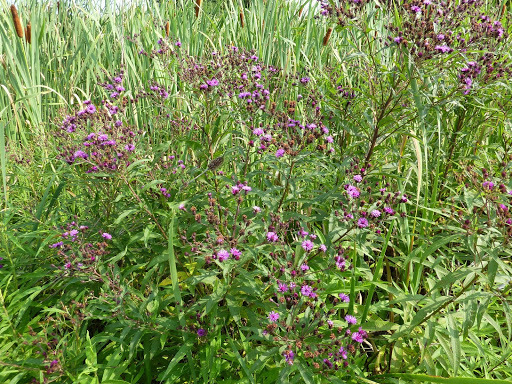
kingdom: Plantae
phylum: Tracheophyta
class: Magnoliopsida
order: Asterales
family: Asteraceae
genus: Vernonia
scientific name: Vernonia noveboracensis
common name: New york ironweed
